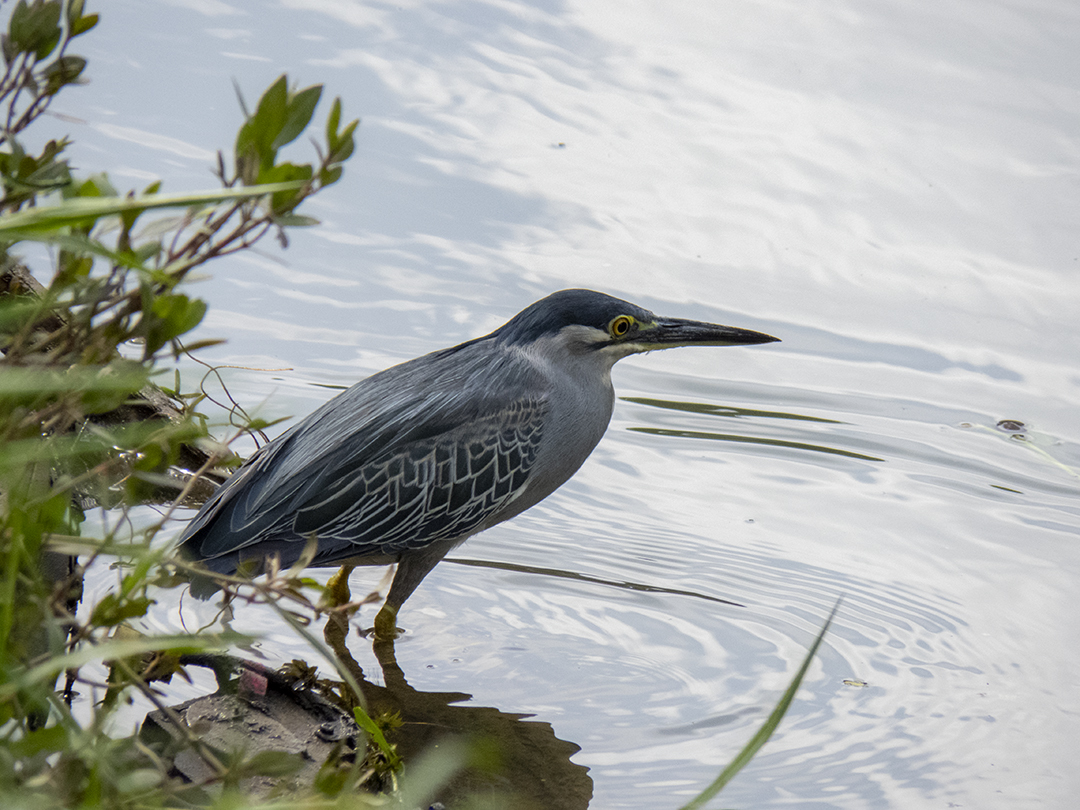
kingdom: Animalia
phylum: Chordata
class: Aves
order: Pelecaniformes
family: Ardeidae
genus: Butorides
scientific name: Butorides striata
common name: Striated heron
